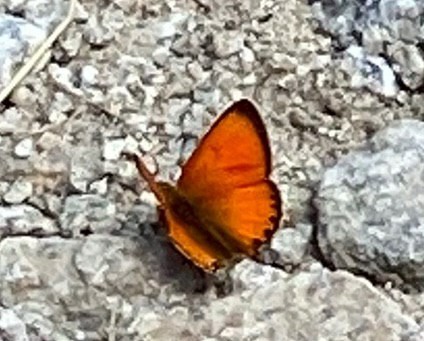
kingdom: Animalia
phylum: Arthropoda
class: Insecta
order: Lepidoptera
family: Lycaenidae
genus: Lycaena
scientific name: Lycaena virgaureae
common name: Scarce copper
